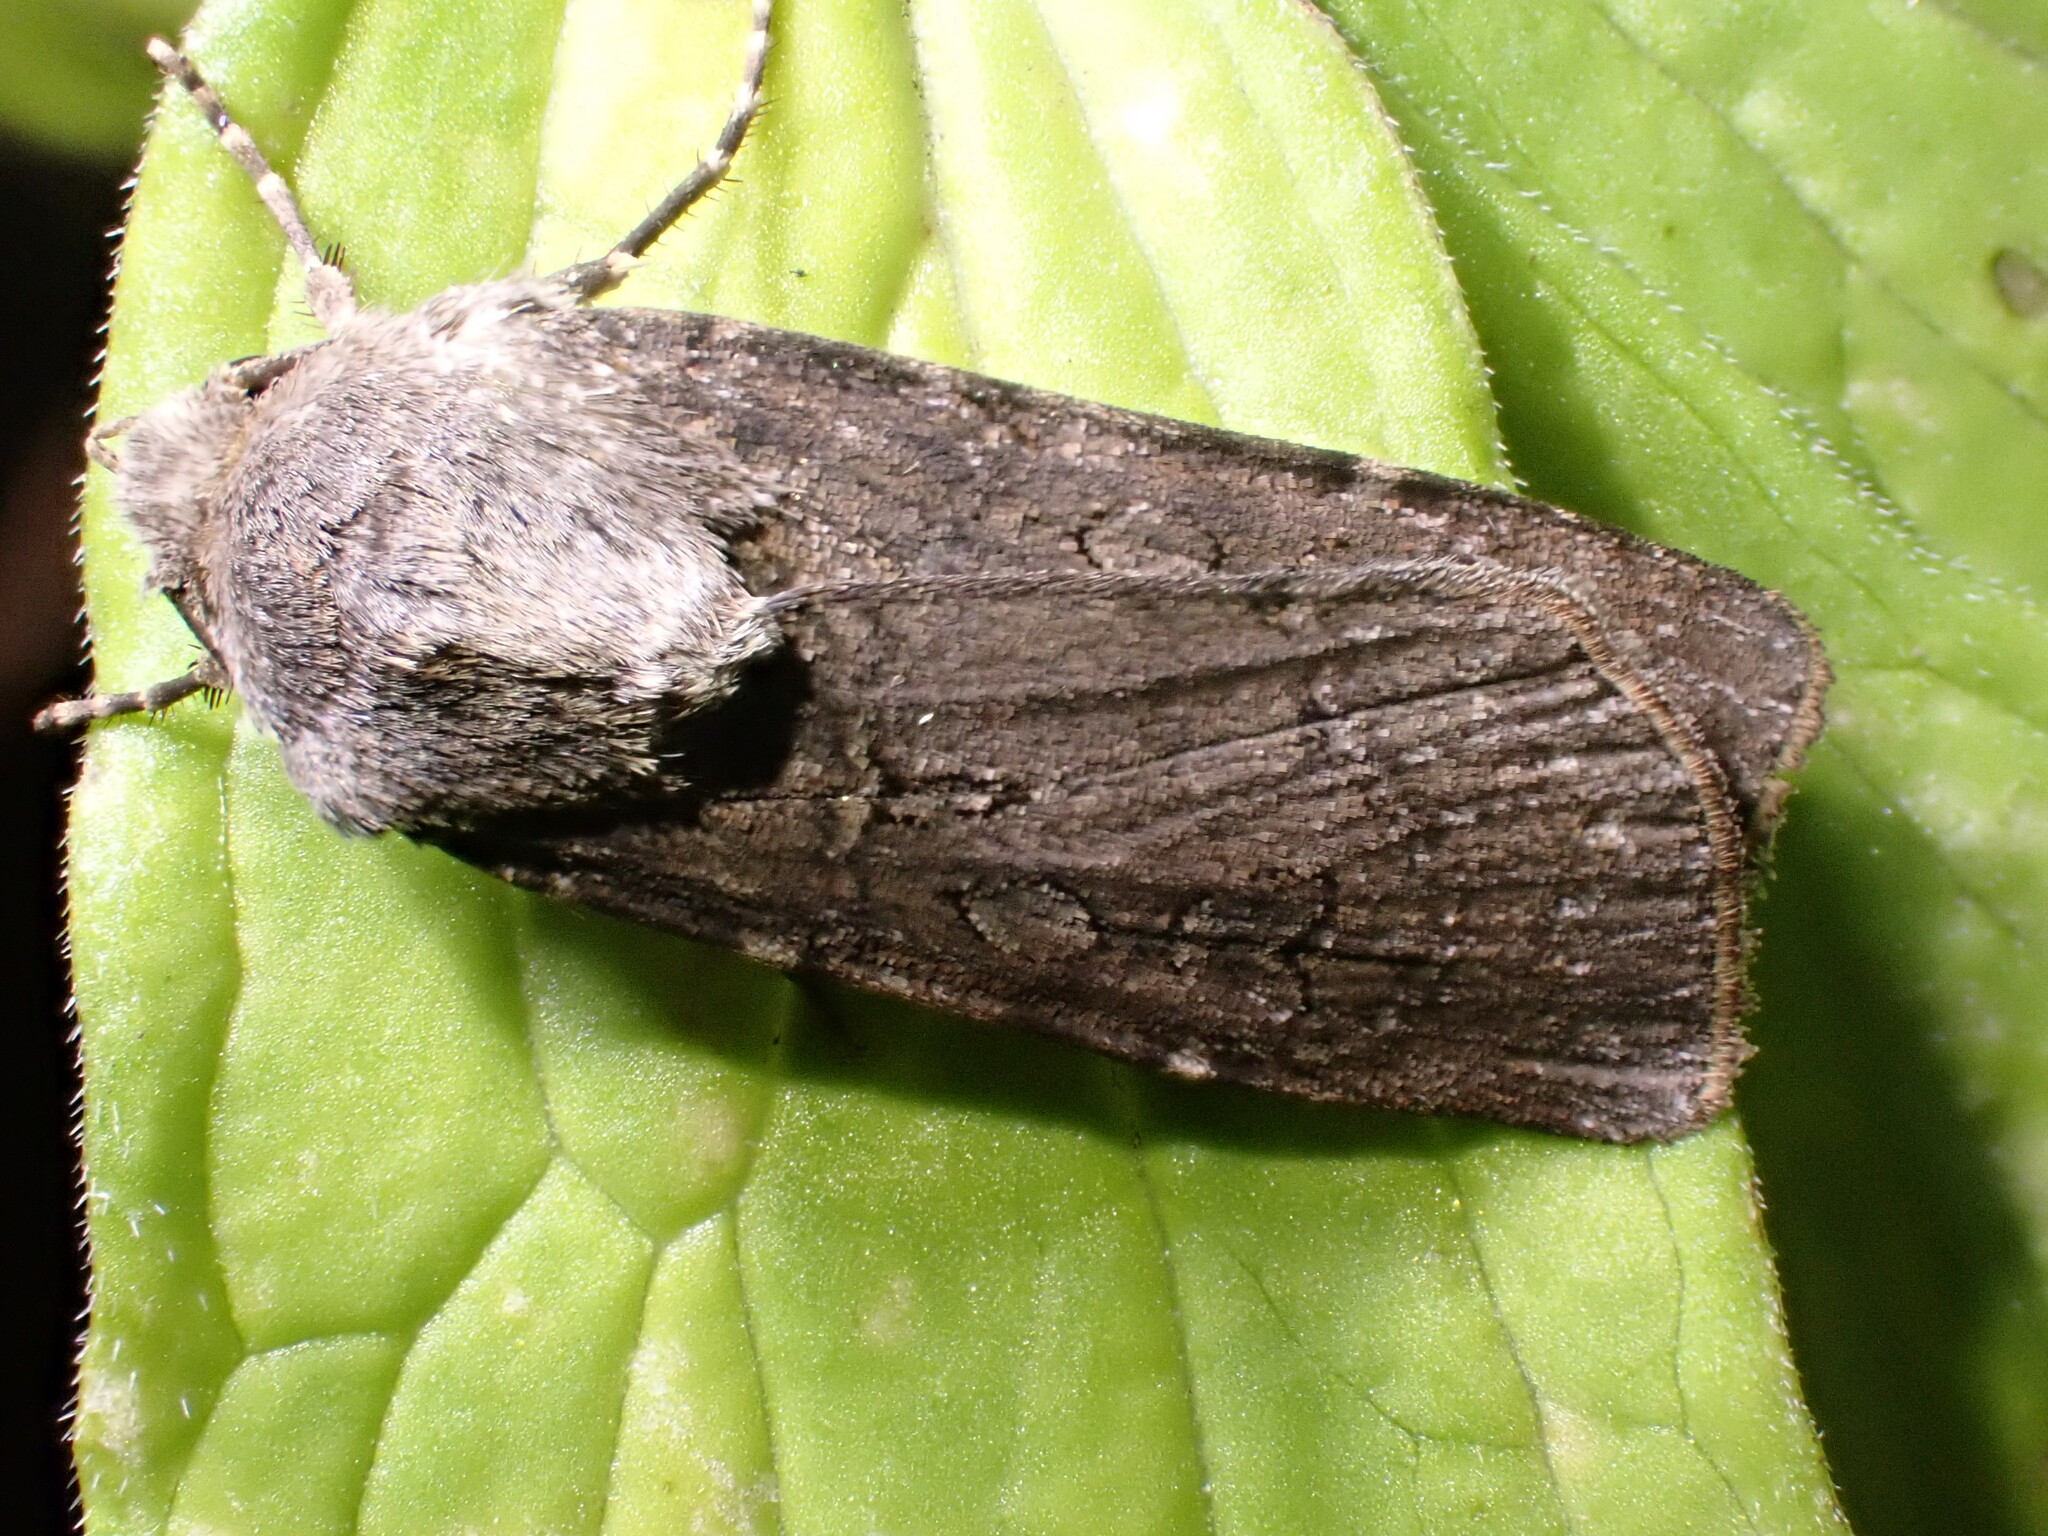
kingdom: Animalia
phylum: Arthropoda
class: Insecta
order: Lepidoptera
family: Noctuidae
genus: Euxoa
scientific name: Euxoa nigricans
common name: Garden dart
